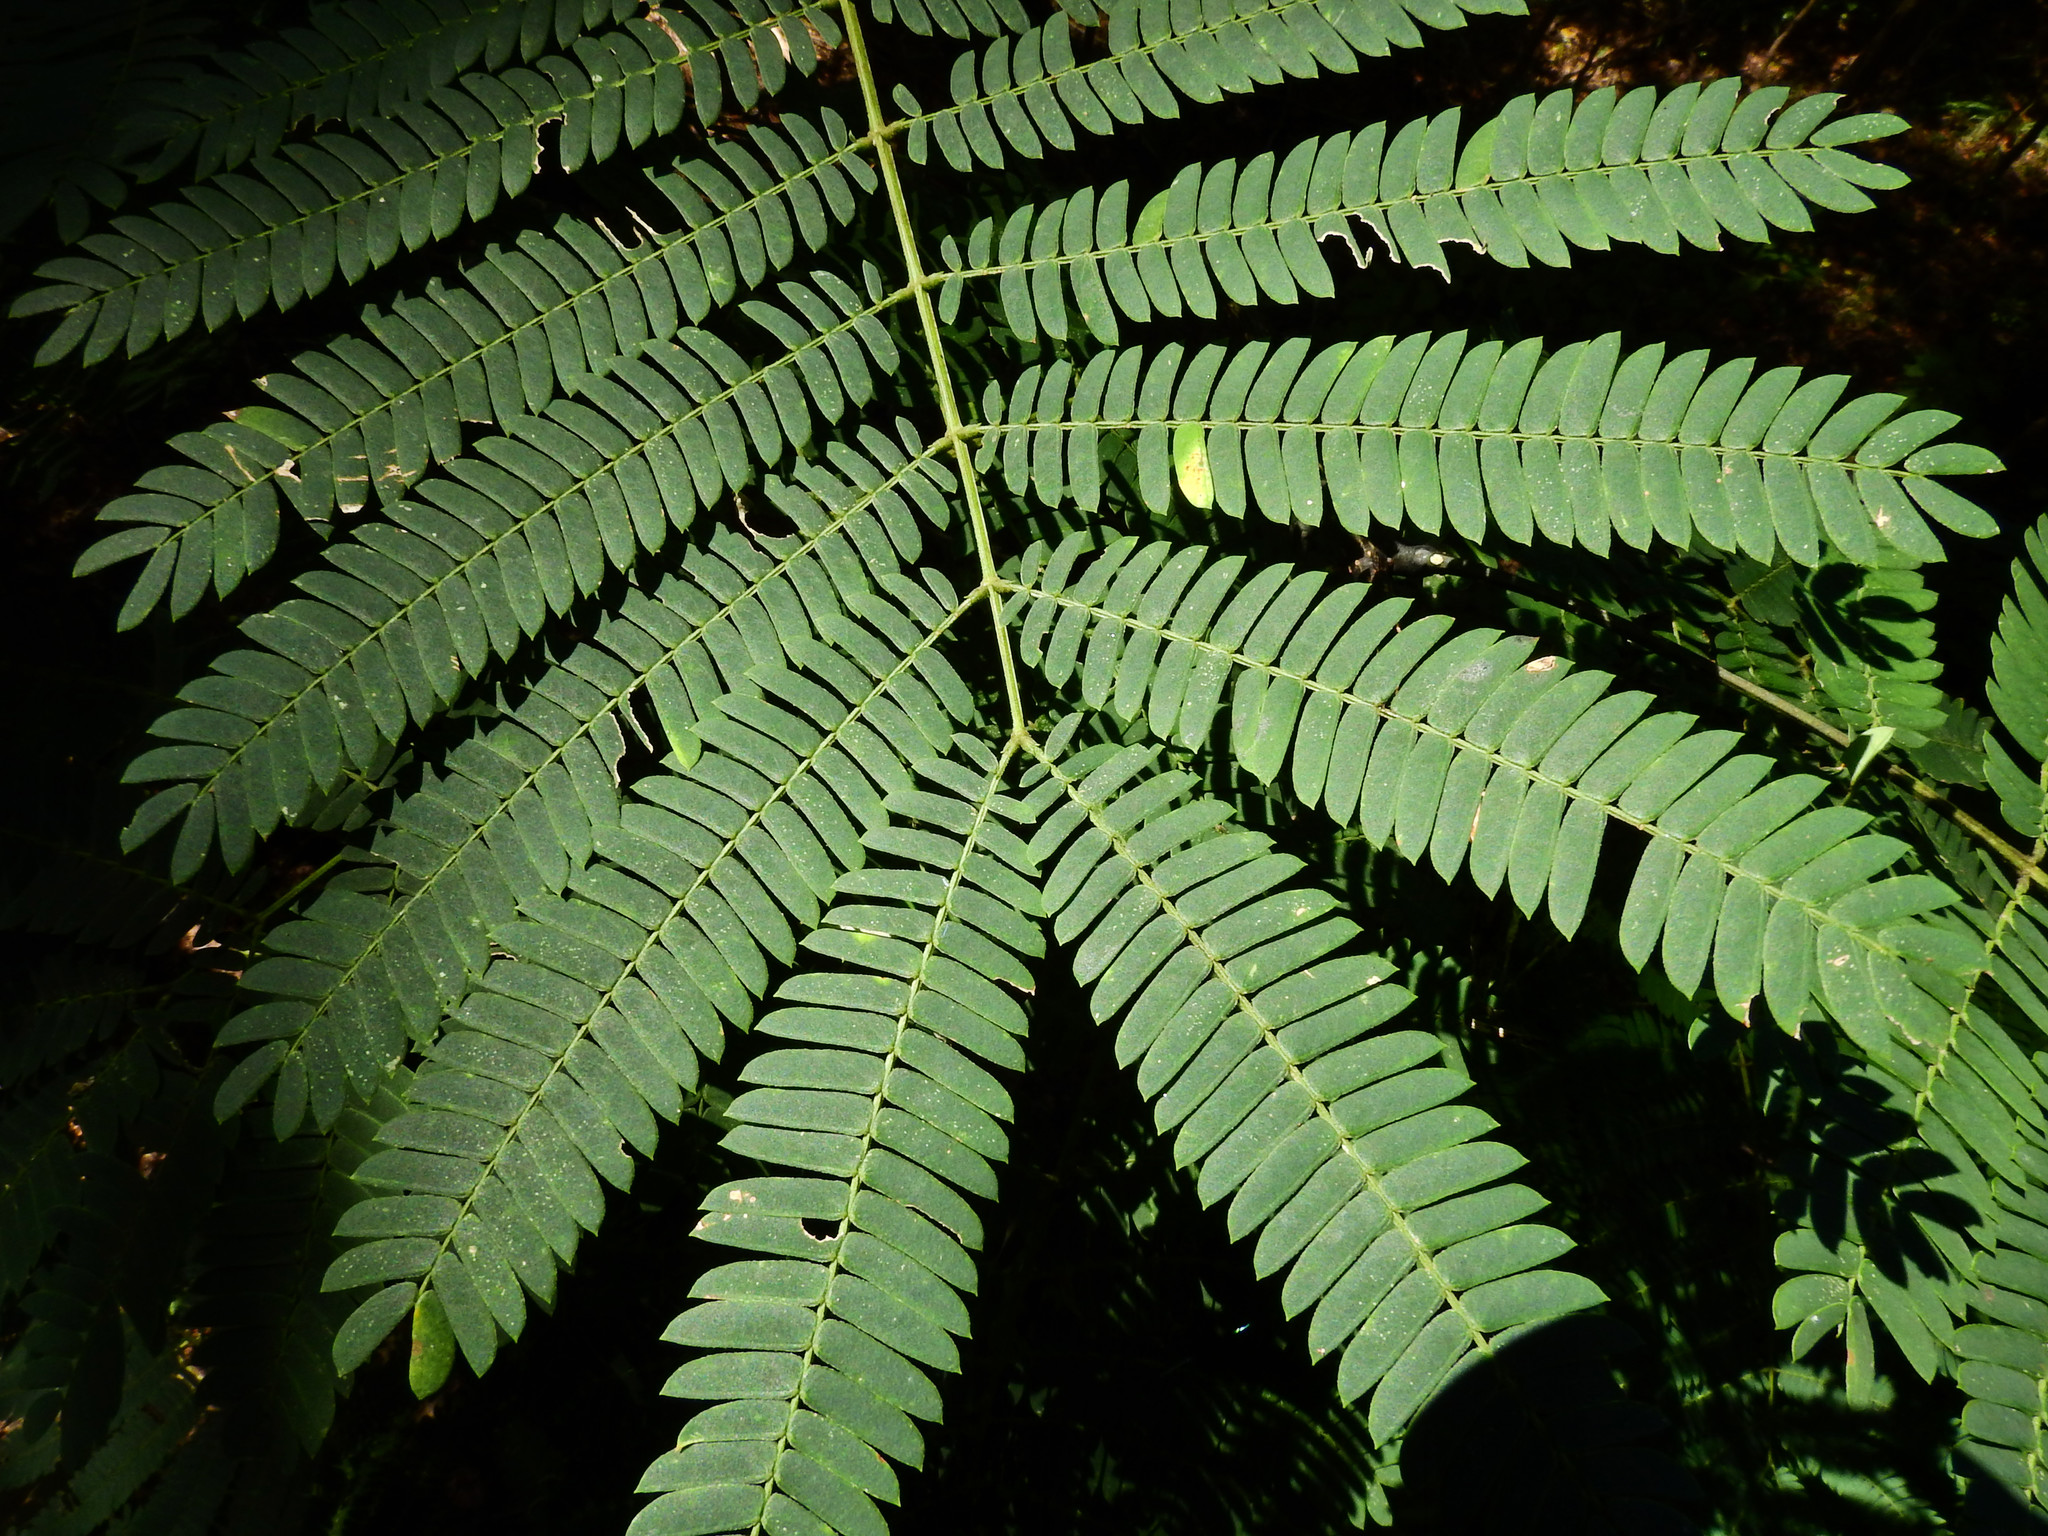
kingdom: Plantae
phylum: Tracheophyta
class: Magnoliopsida
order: Fabales
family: Fabaceae
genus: Albizia
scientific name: Albizia julibrissin
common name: Silktree
